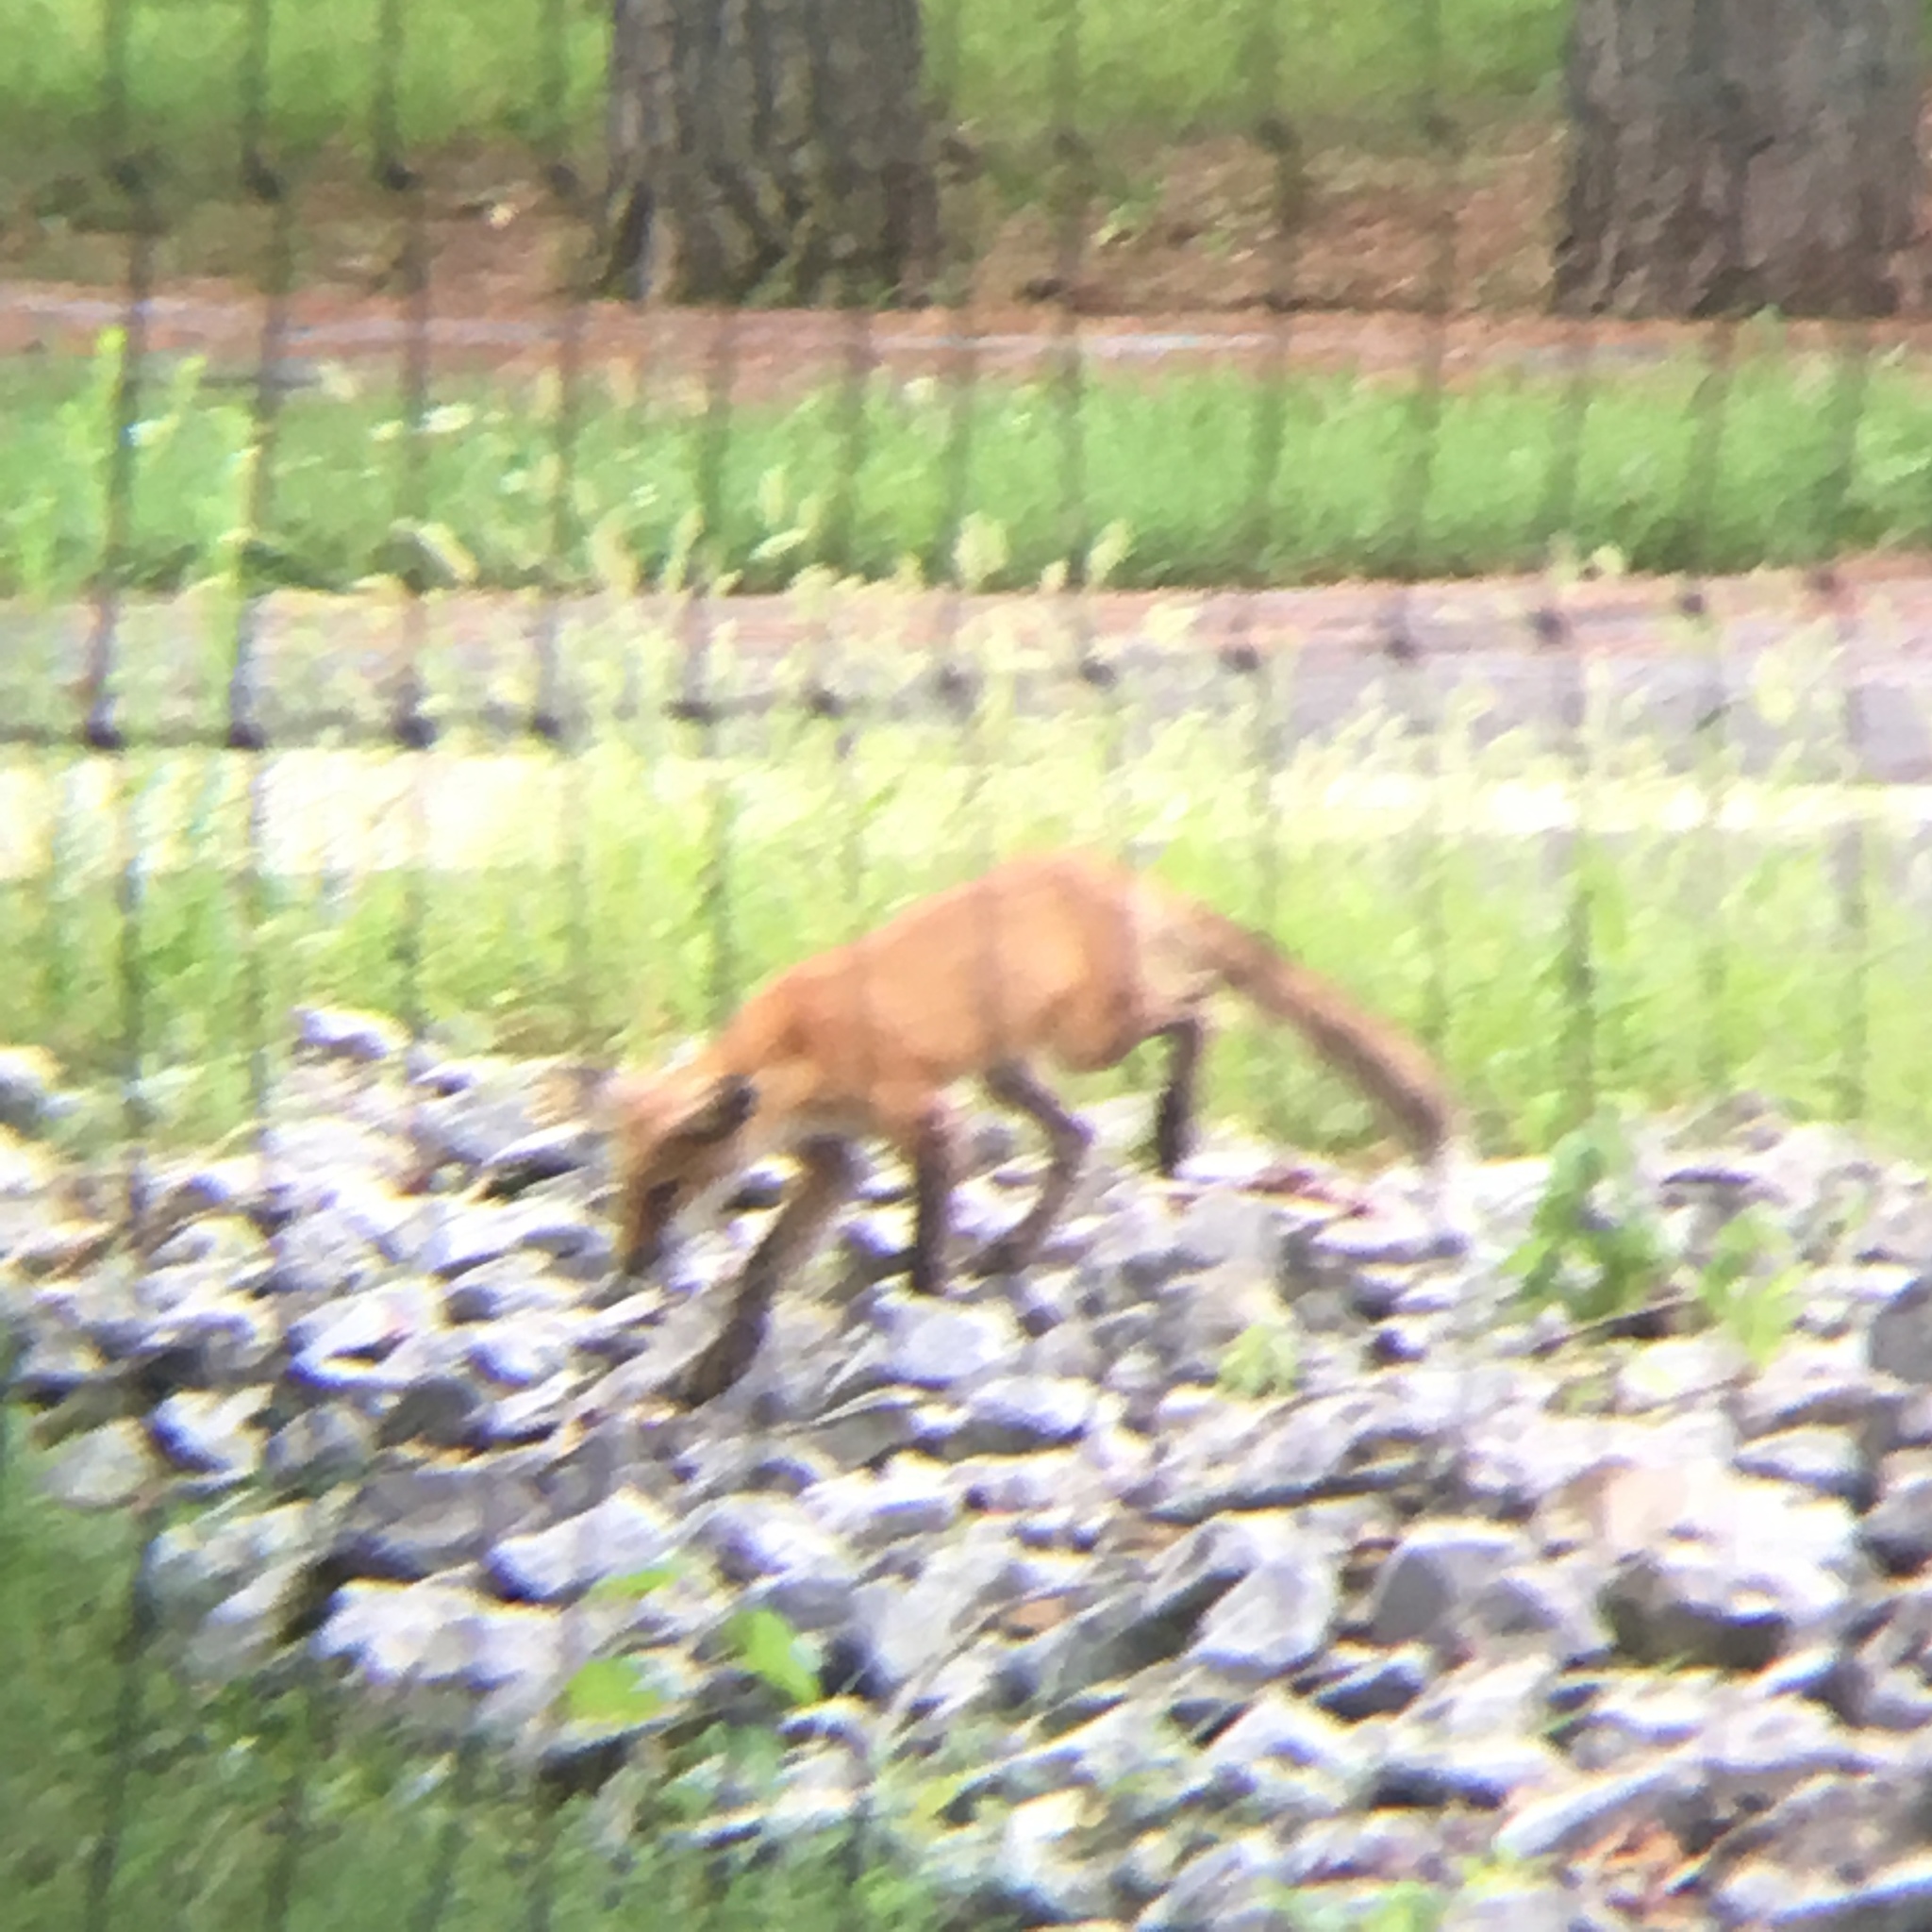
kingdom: Animalia
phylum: Chordata
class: Mammalia
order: Carnivora
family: Canidae
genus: Vulpes
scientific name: Vulpes vulpes
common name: Red fox
